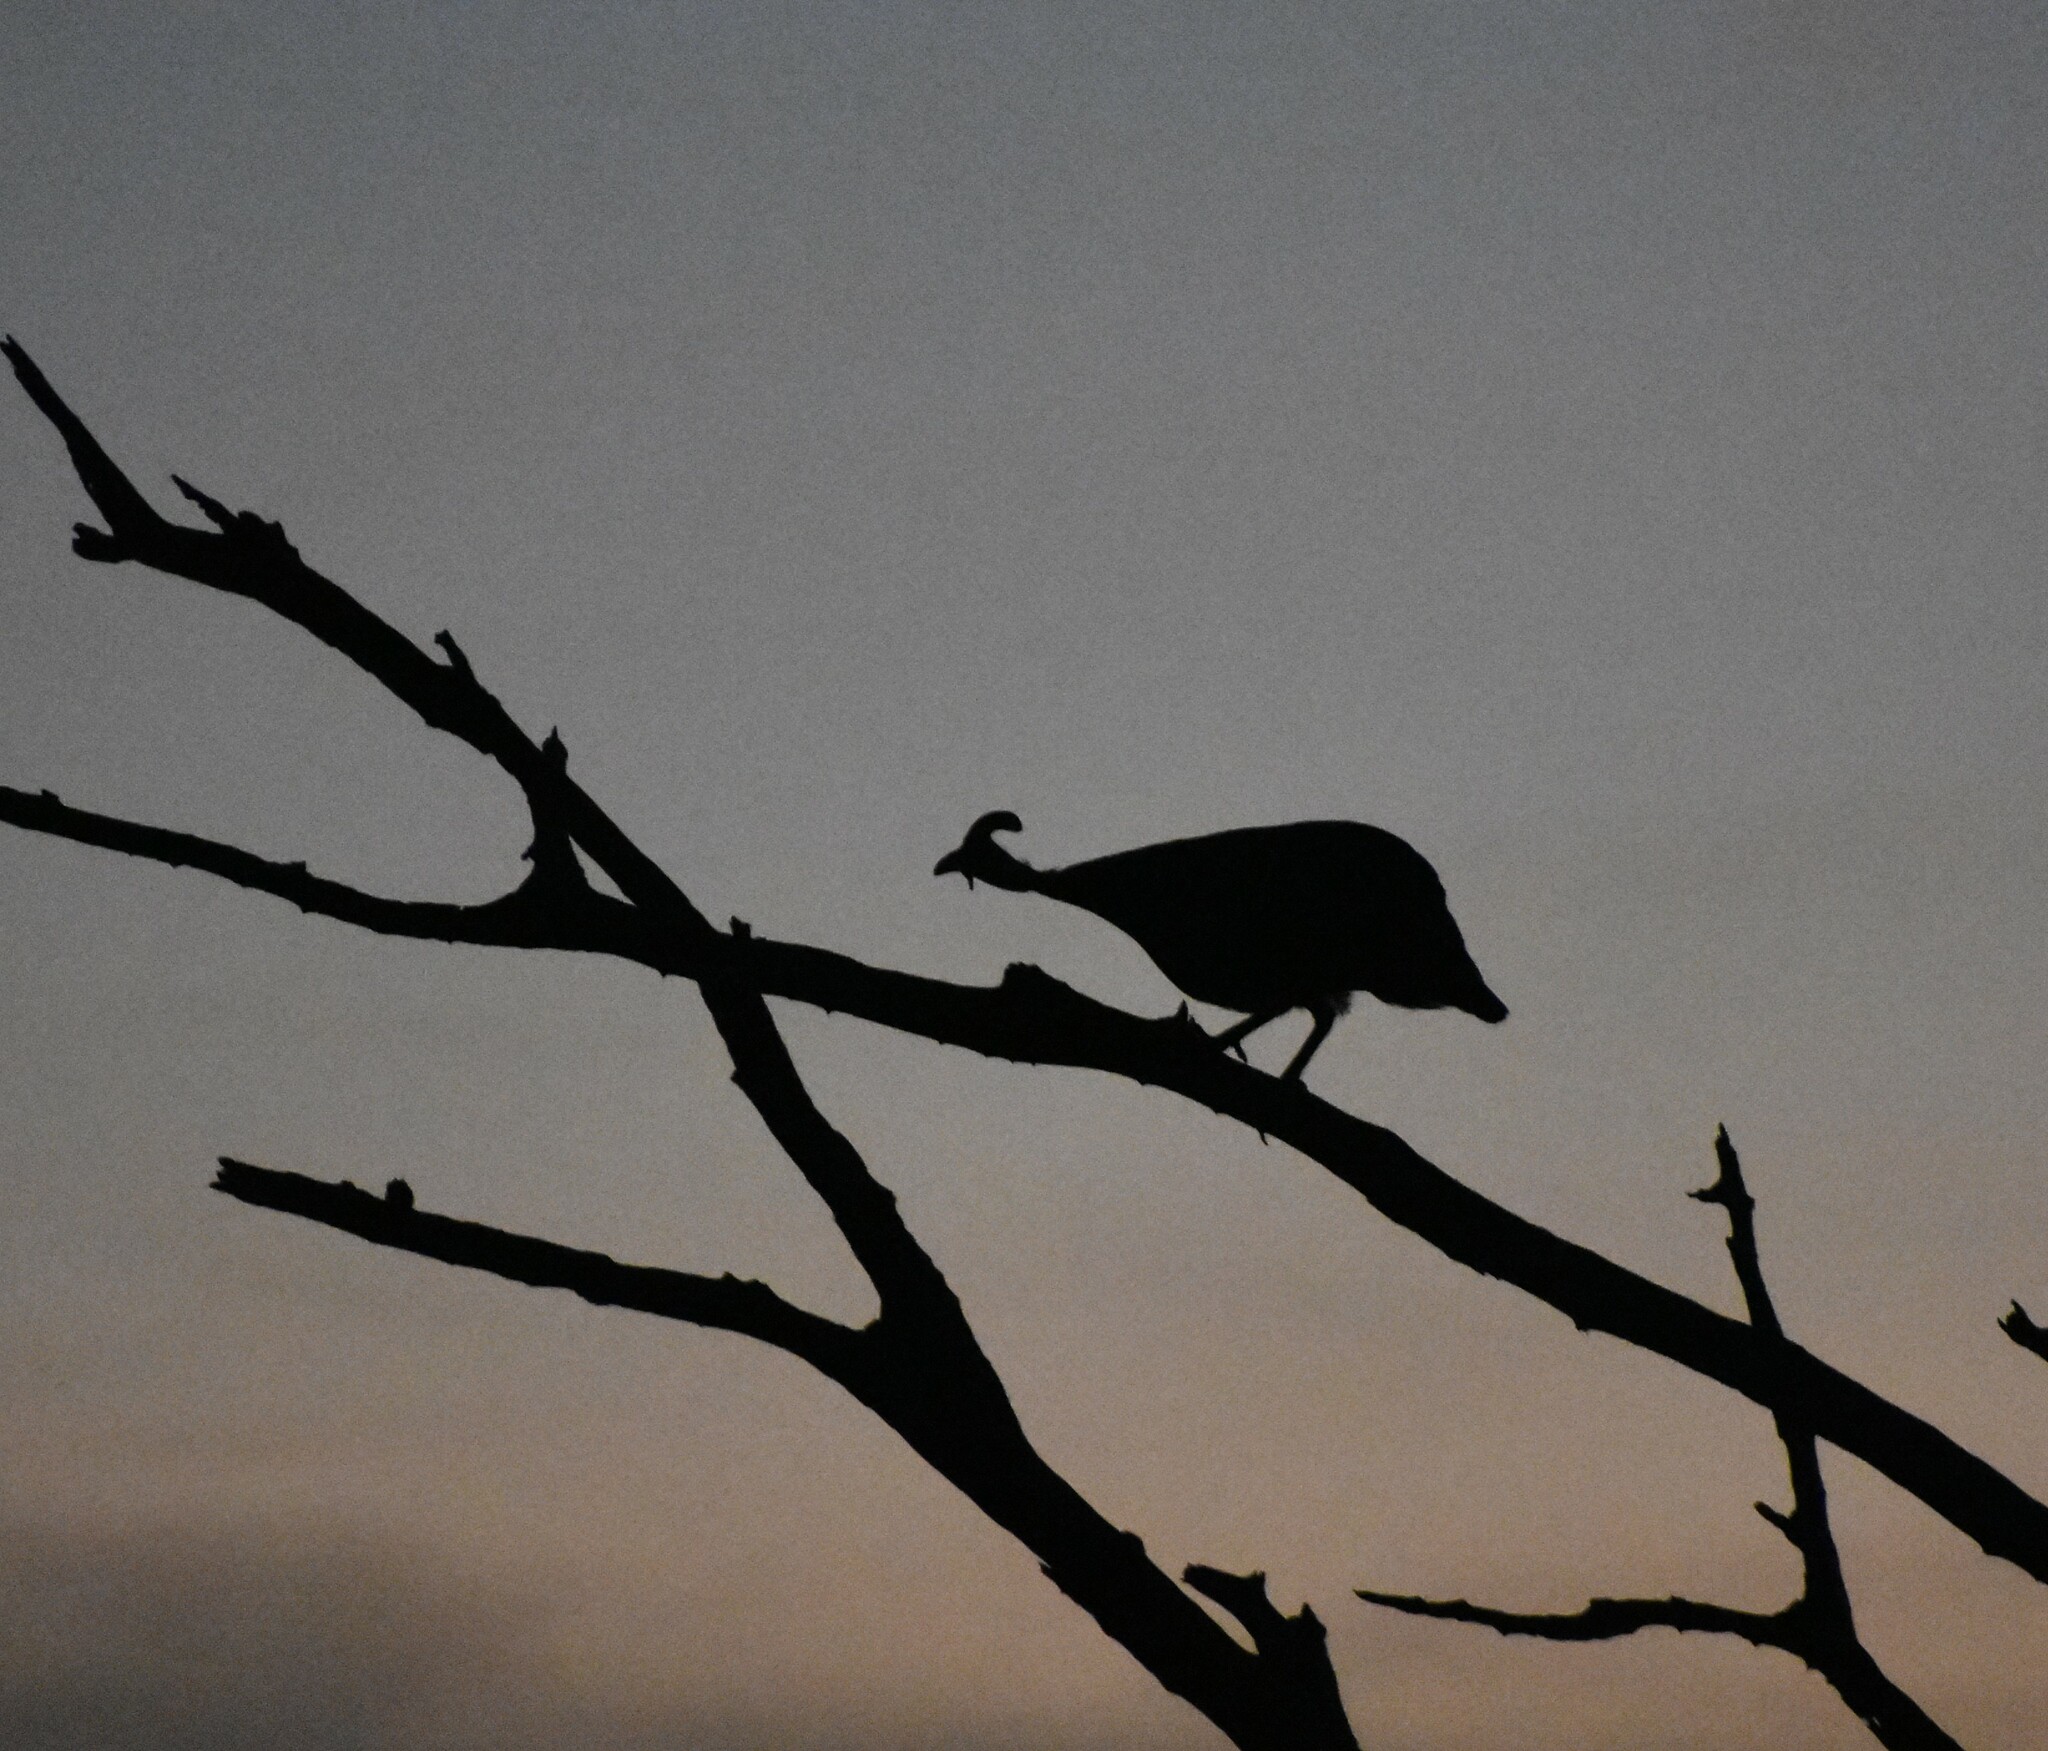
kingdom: Animalia
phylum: Chordata
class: Aves
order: Galliformes
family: Numididae
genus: Numida
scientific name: Numida meleagris
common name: Helmeted guineafowl
